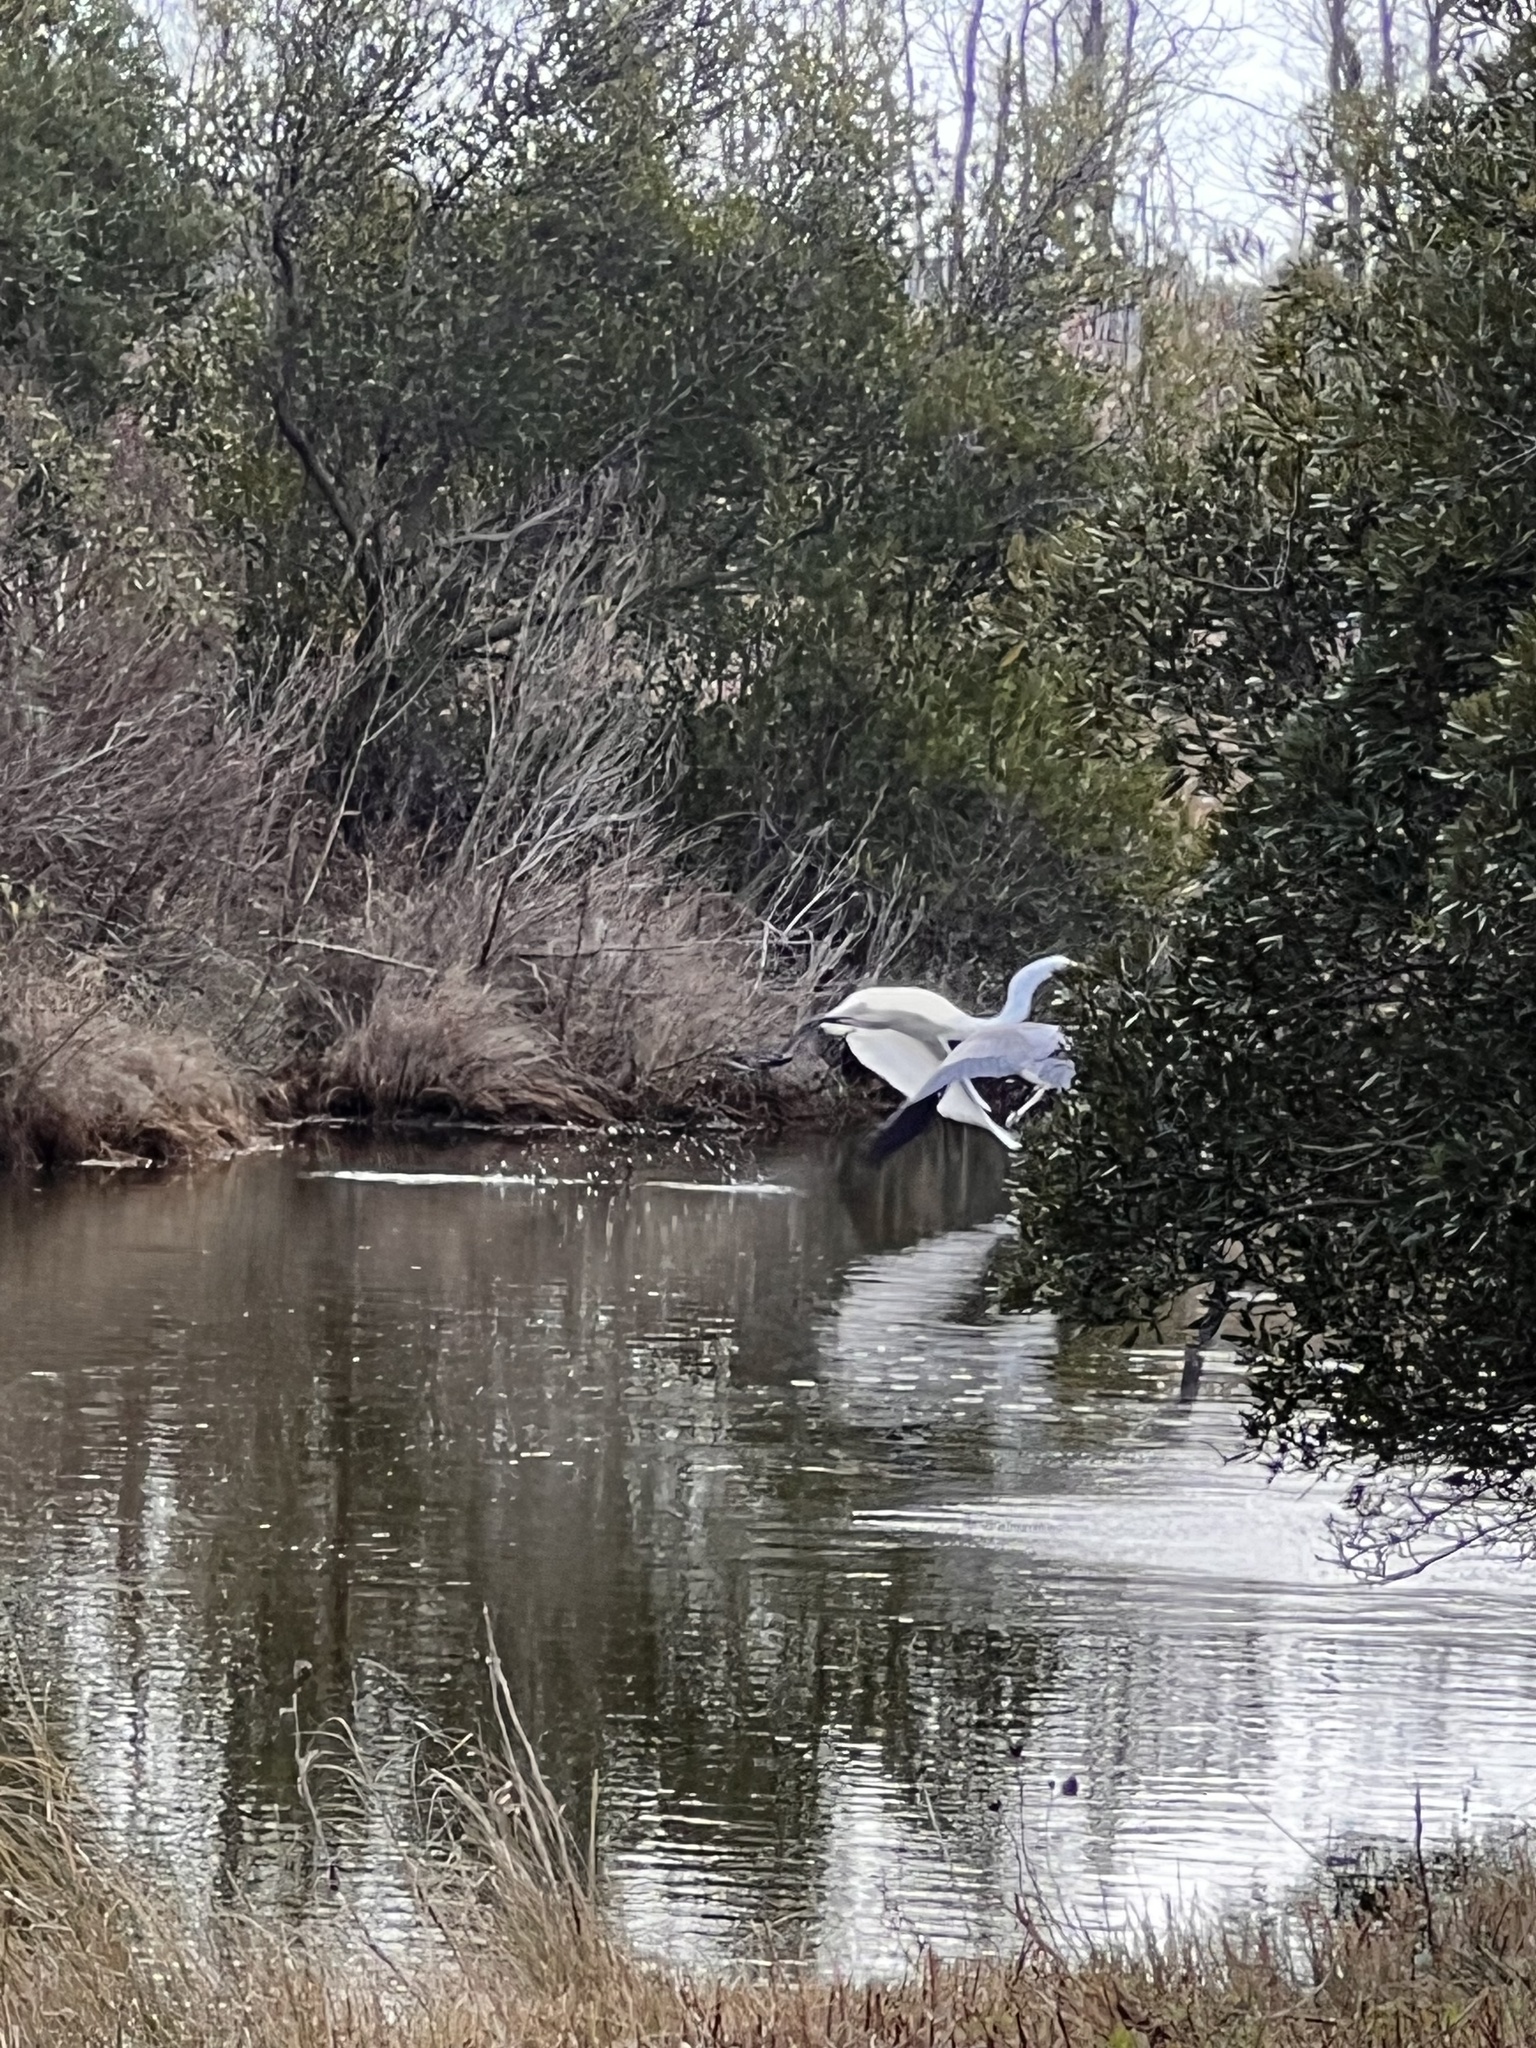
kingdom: Animalia
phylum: Chordata
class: Aves
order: Pelecaniformes
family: Ardeidae
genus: Ardea
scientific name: Ardea alba
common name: Great egret
